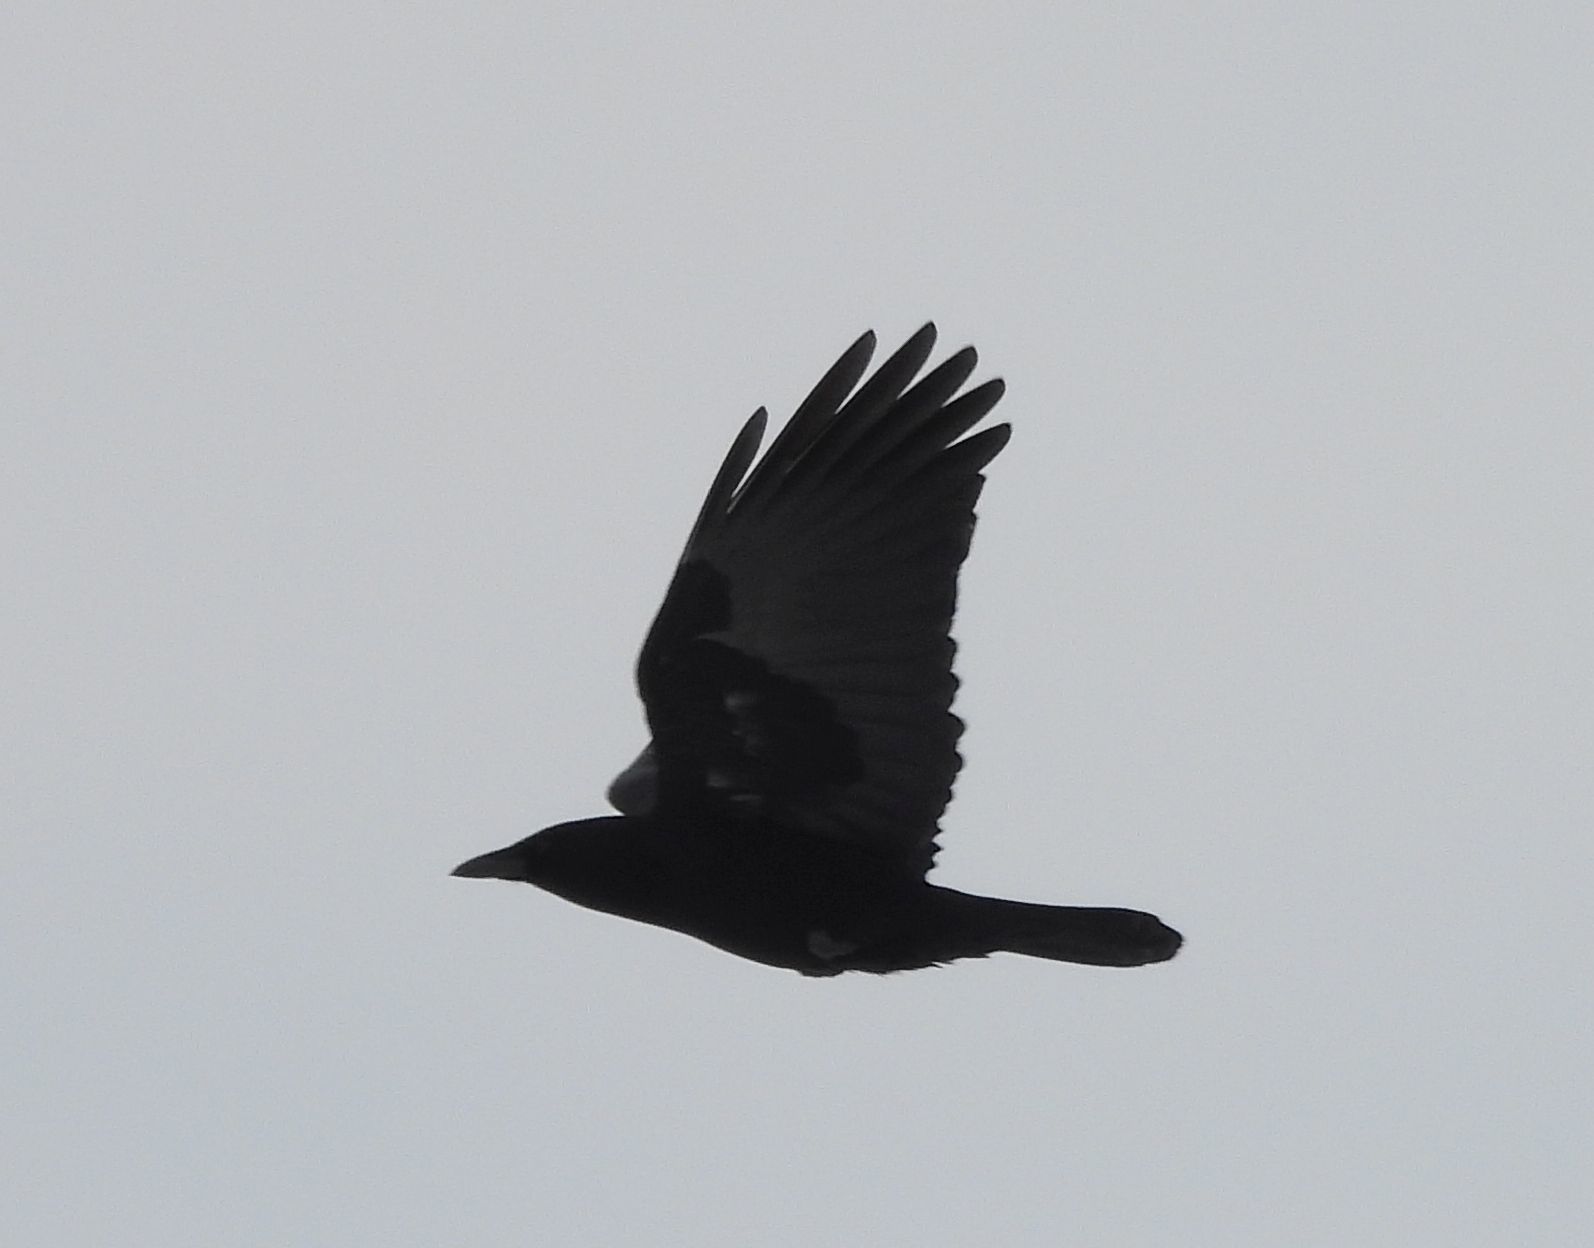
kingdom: Animalia
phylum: Chordata
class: Aves
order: Passeriformes
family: Corvidae
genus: Corvus
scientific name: Corvus brachyrhynchos
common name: American crow
